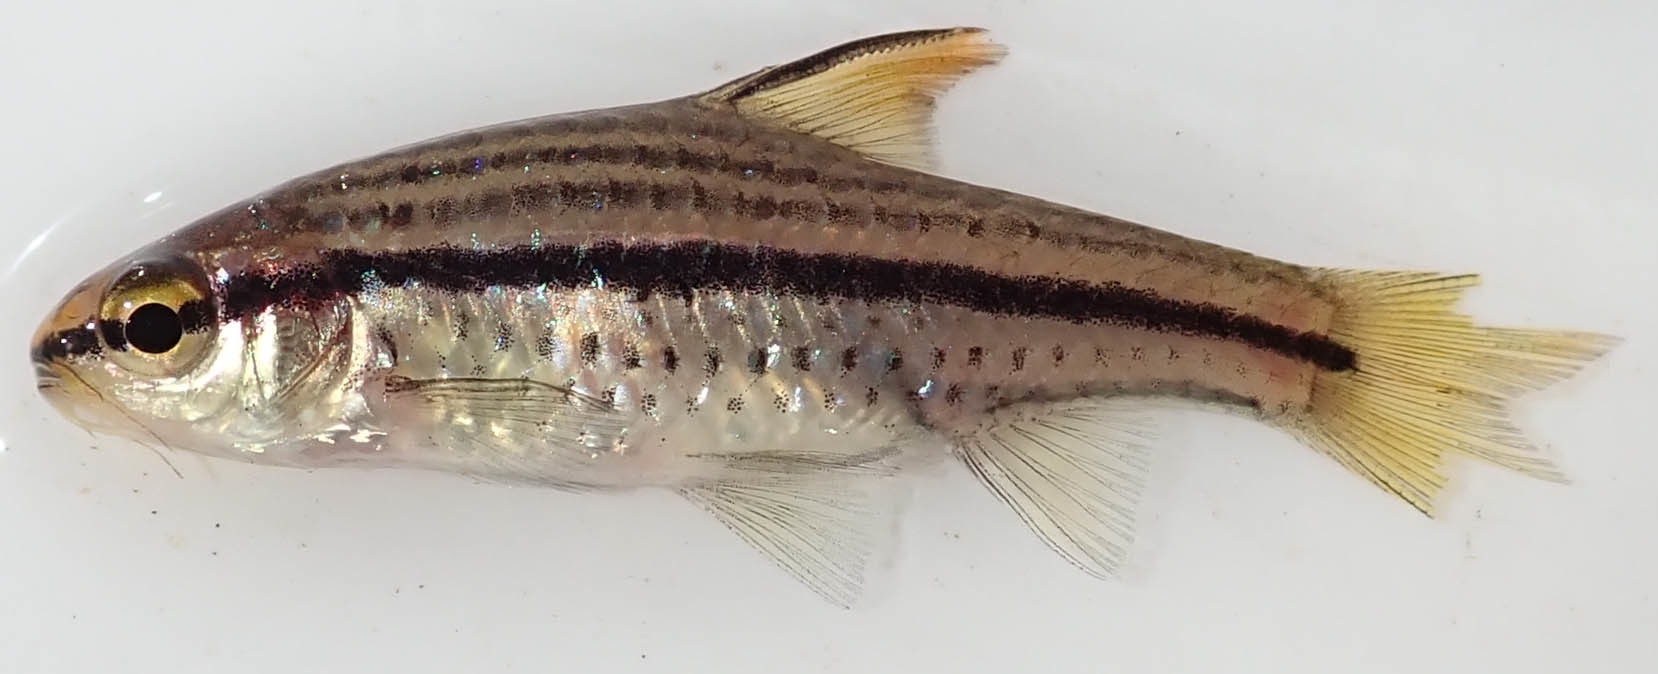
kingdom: Animalia
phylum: Chordata
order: Cypriniformes
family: Cyprinidae
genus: Enteromius
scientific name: Enteromius multilineatus
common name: Copperstripe barb
